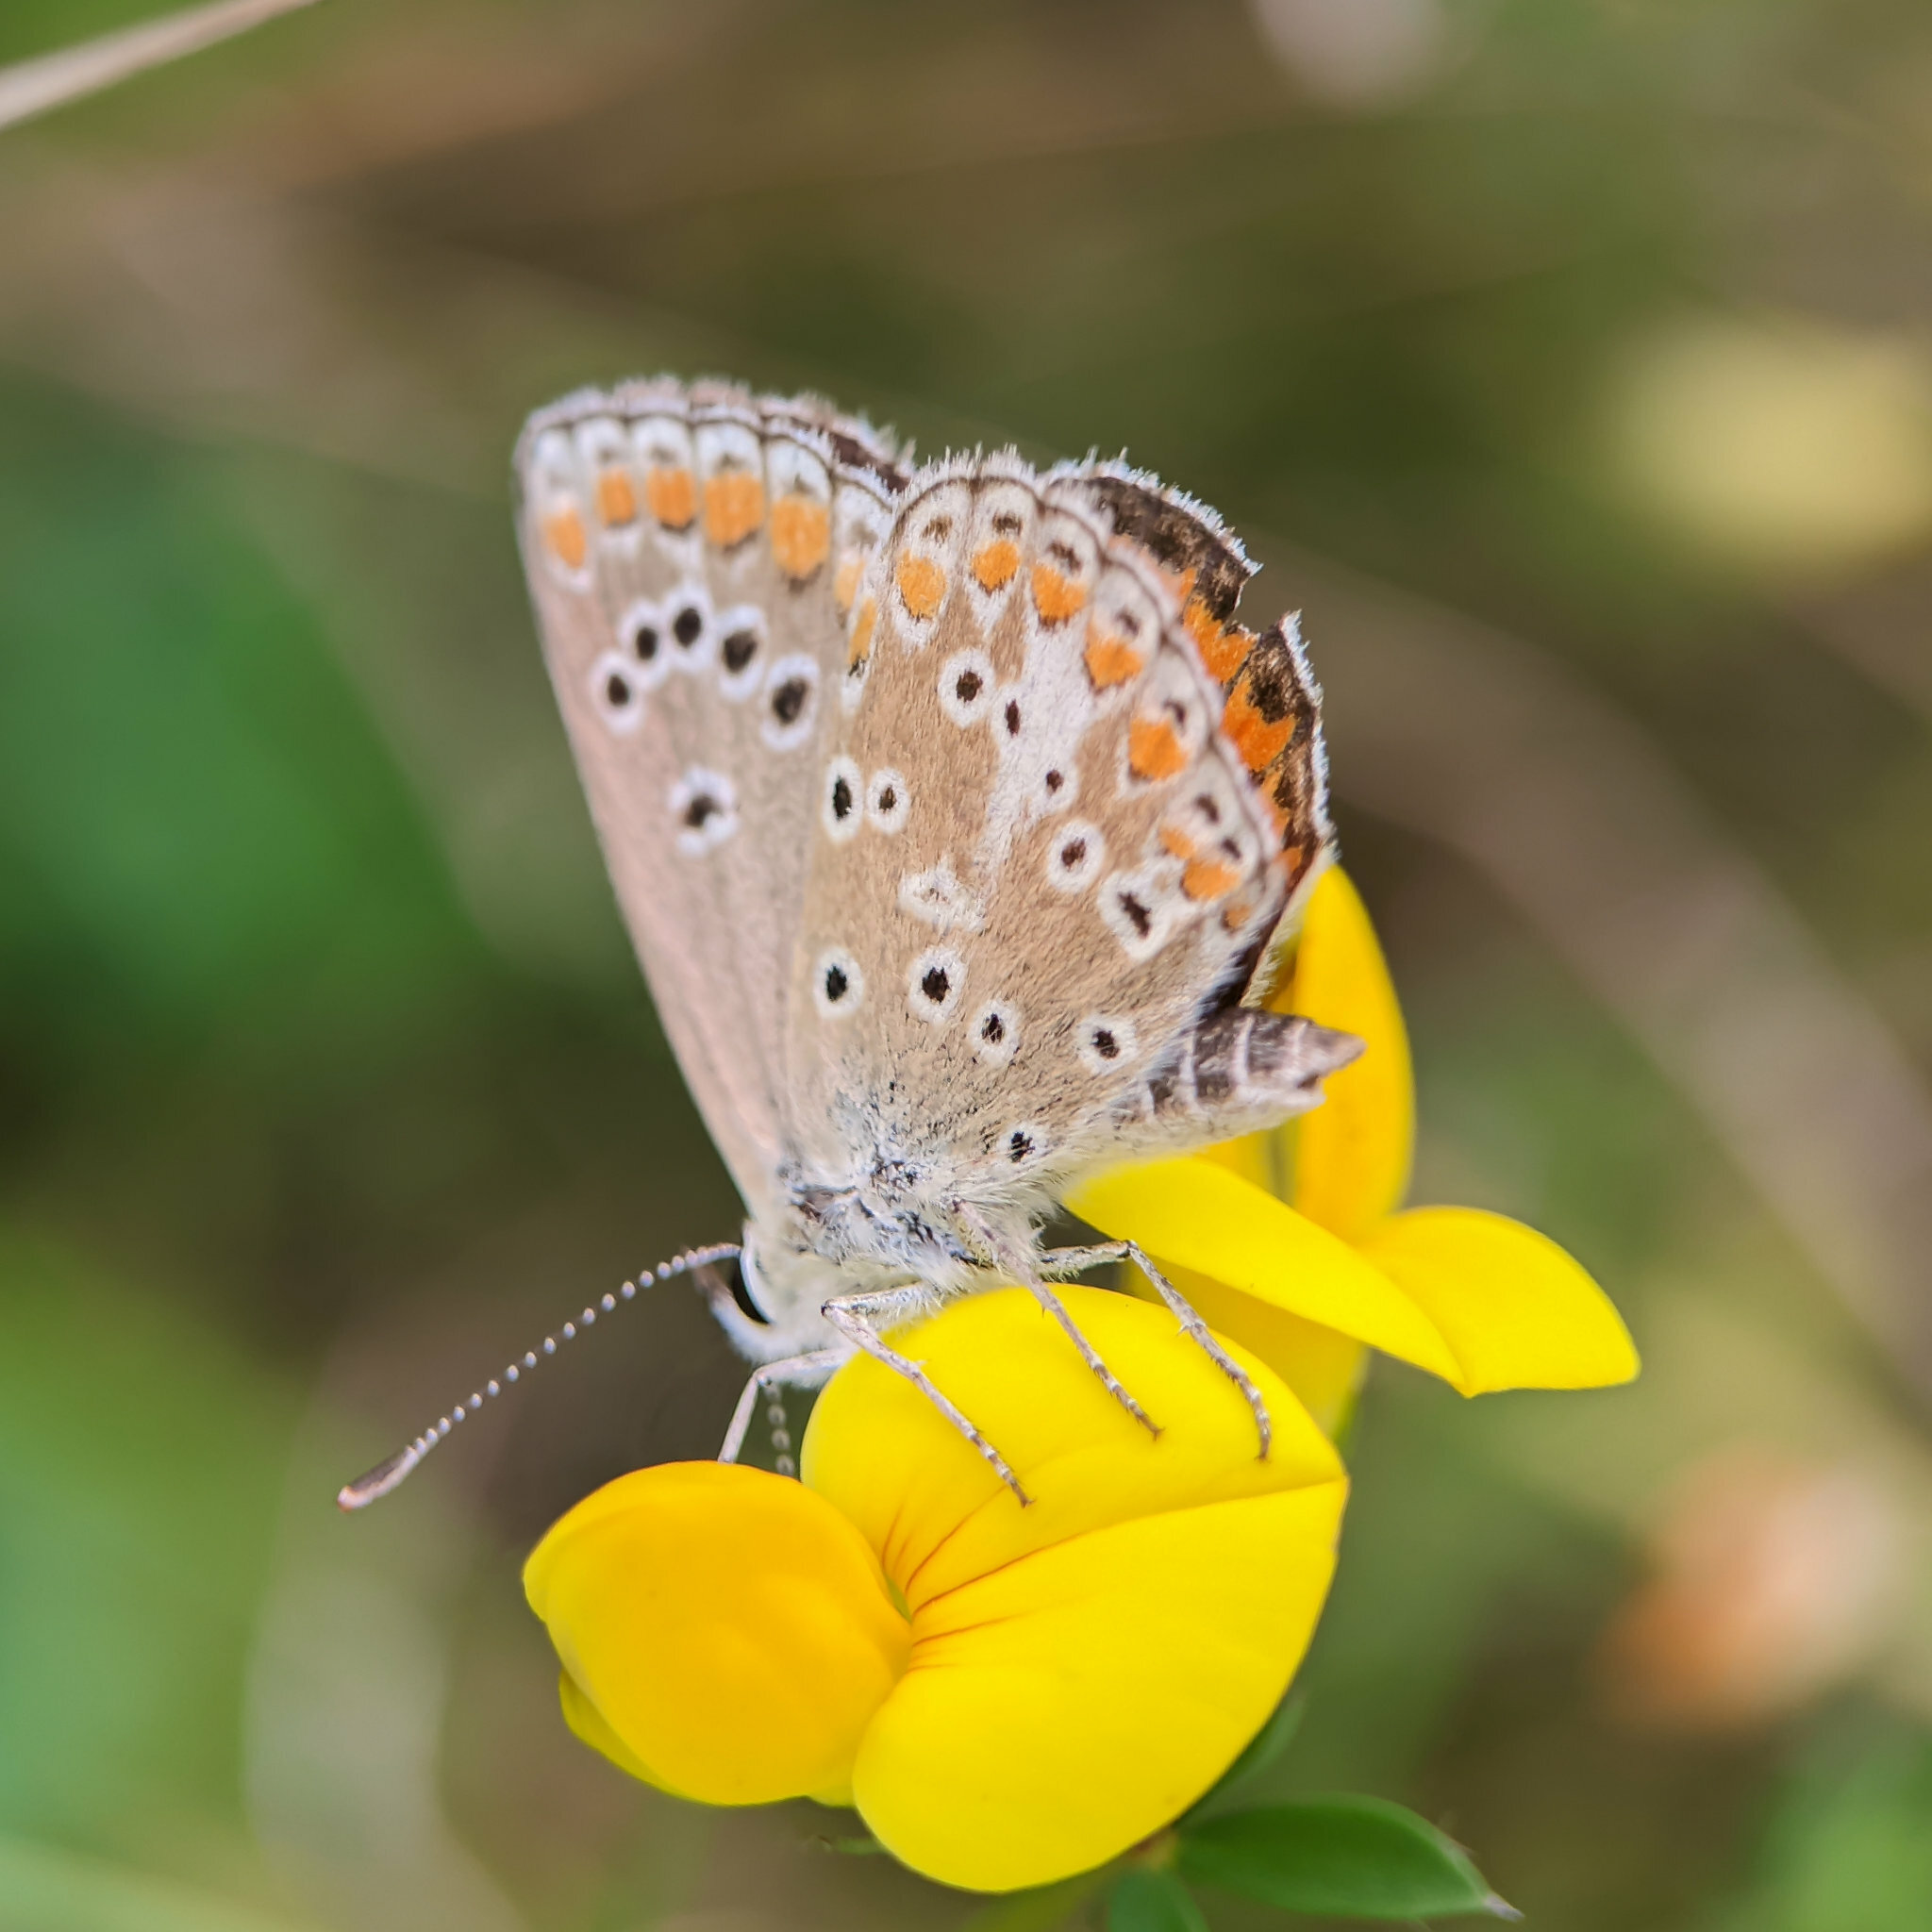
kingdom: Animalia
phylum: Arthropoda
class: Insecta
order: Lepidoptera
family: Lycaenidae
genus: Aricia
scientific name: Aricia agestis
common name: Brown argus
